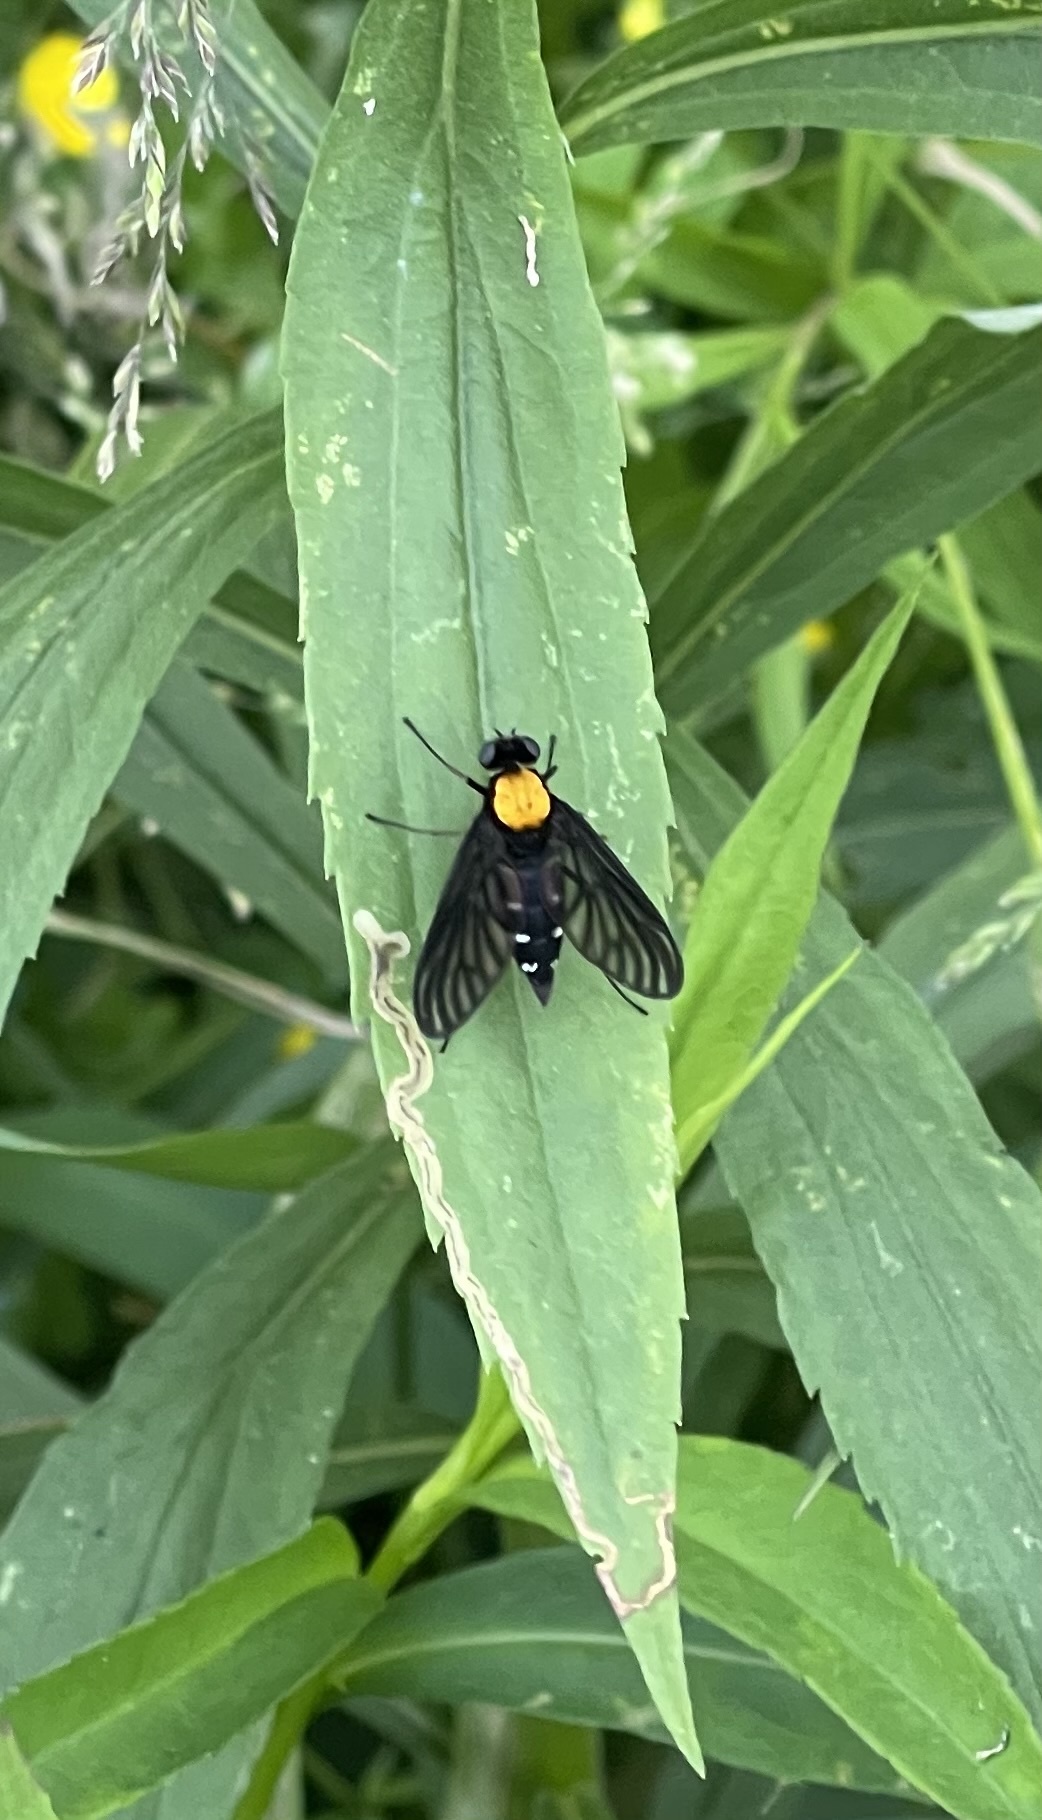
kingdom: Animalia
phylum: Arthropoda
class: Insecta
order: Diptera
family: Rhagionidae
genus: Chrysopilus
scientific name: Chrysopilus thoracicus
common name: Golden-backed snipe fly
